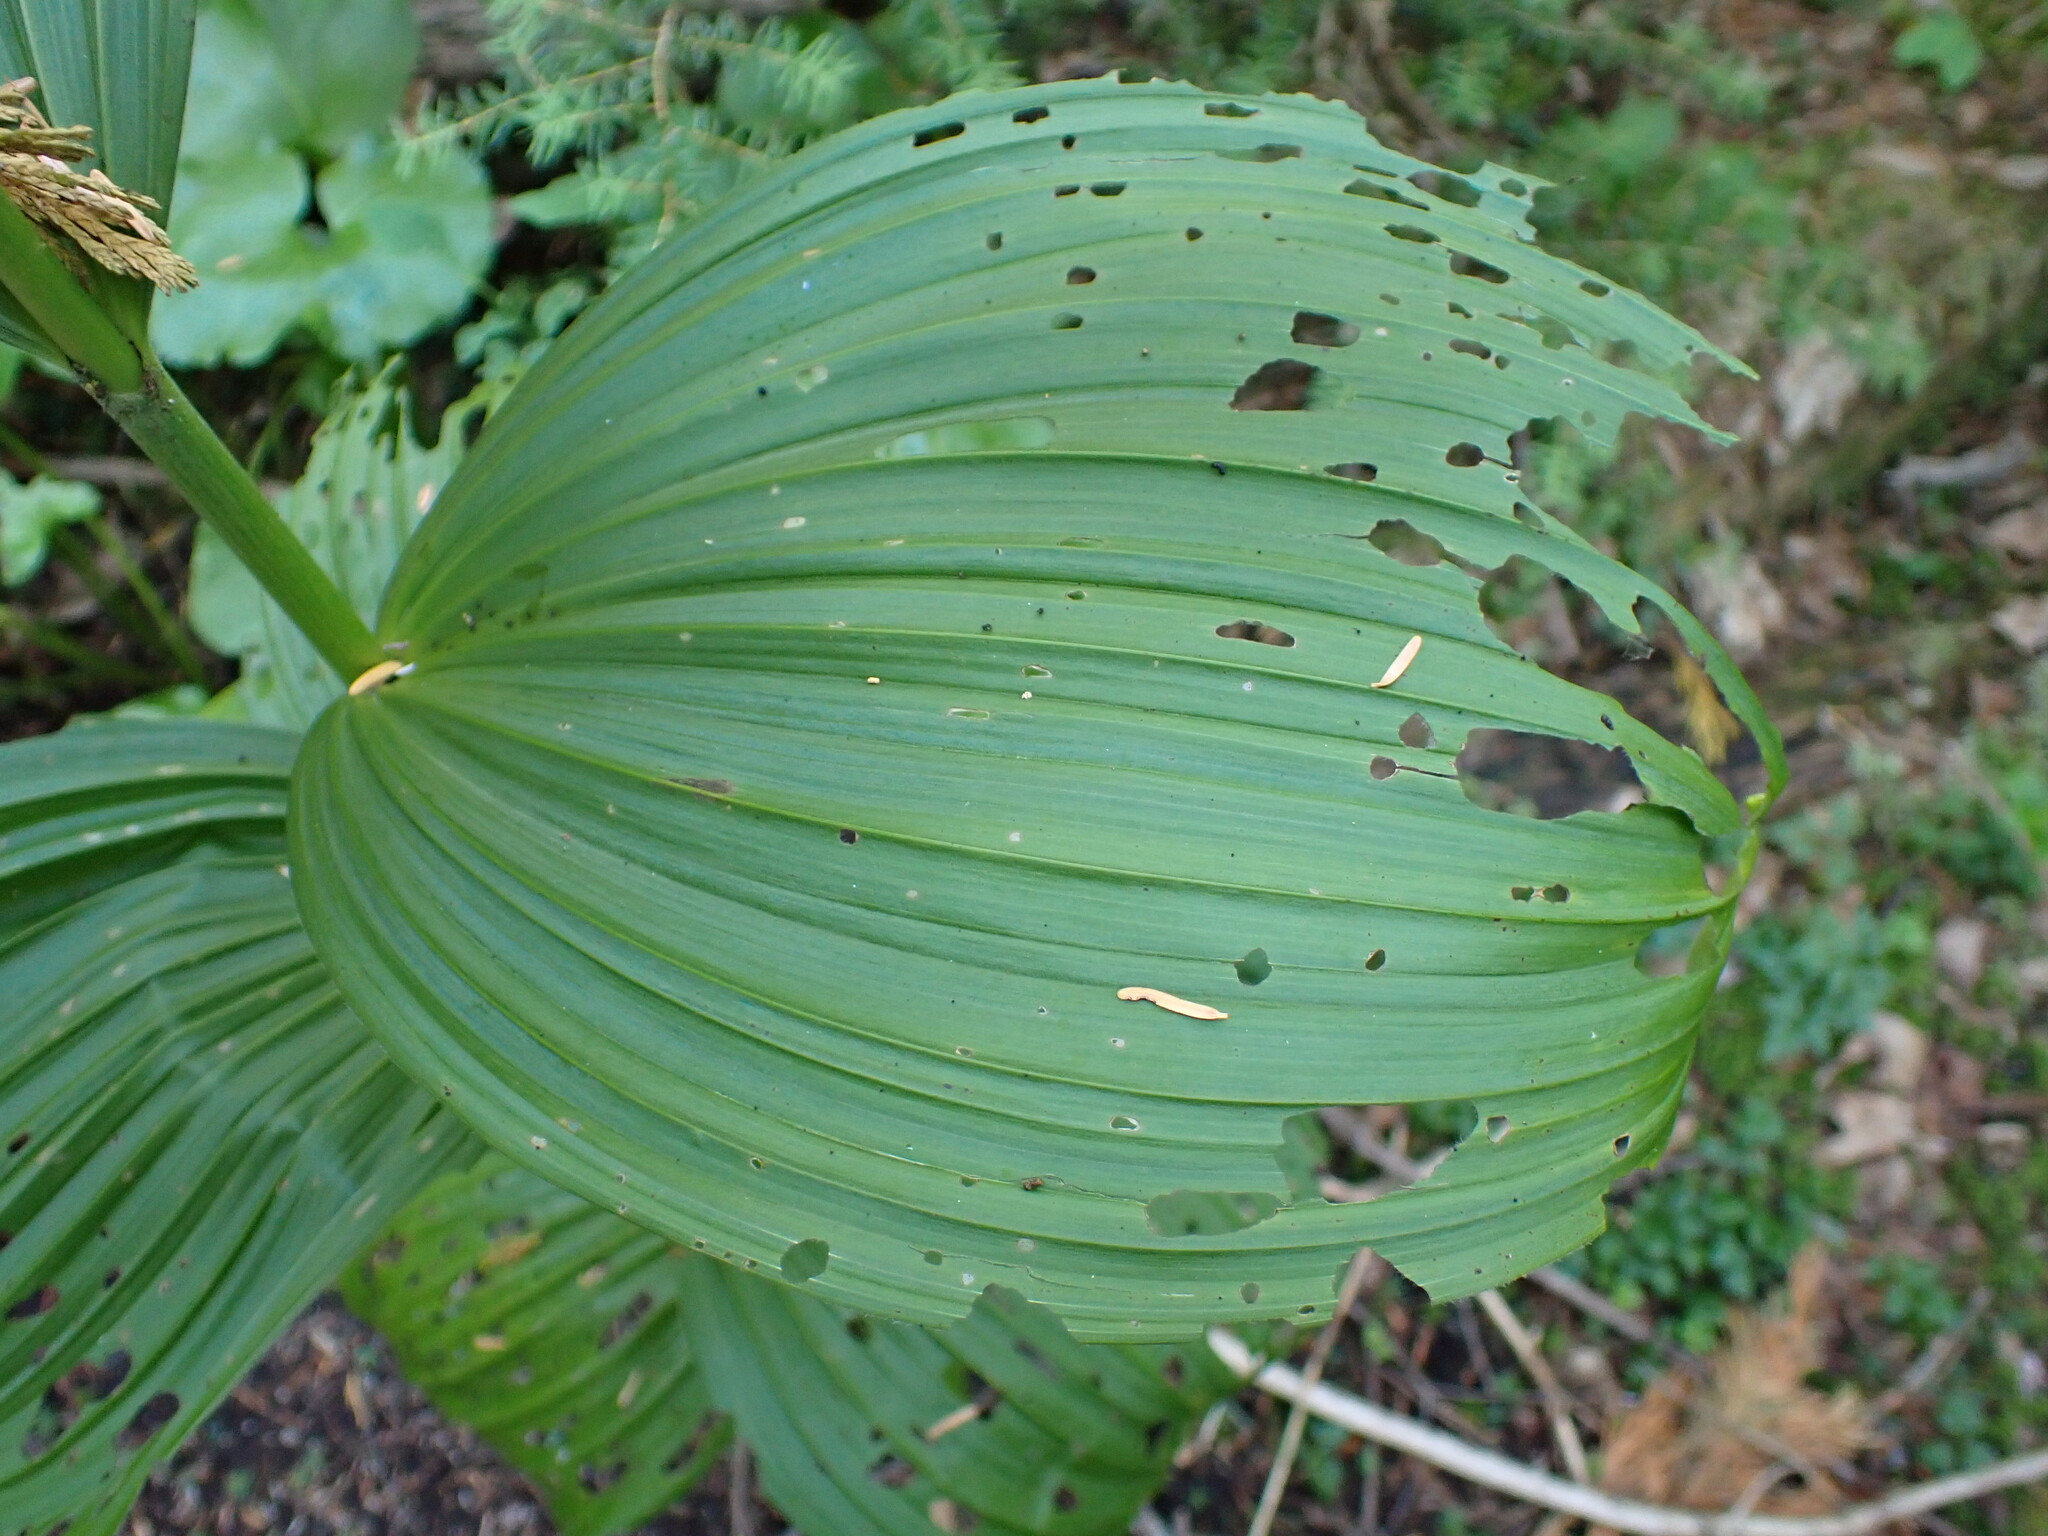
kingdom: Plantae
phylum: Tracheophyta
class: Liliopsida
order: Liliales
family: Melanthiaceae
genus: Veratrum
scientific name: Veratrum viride
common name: American false hellebore
